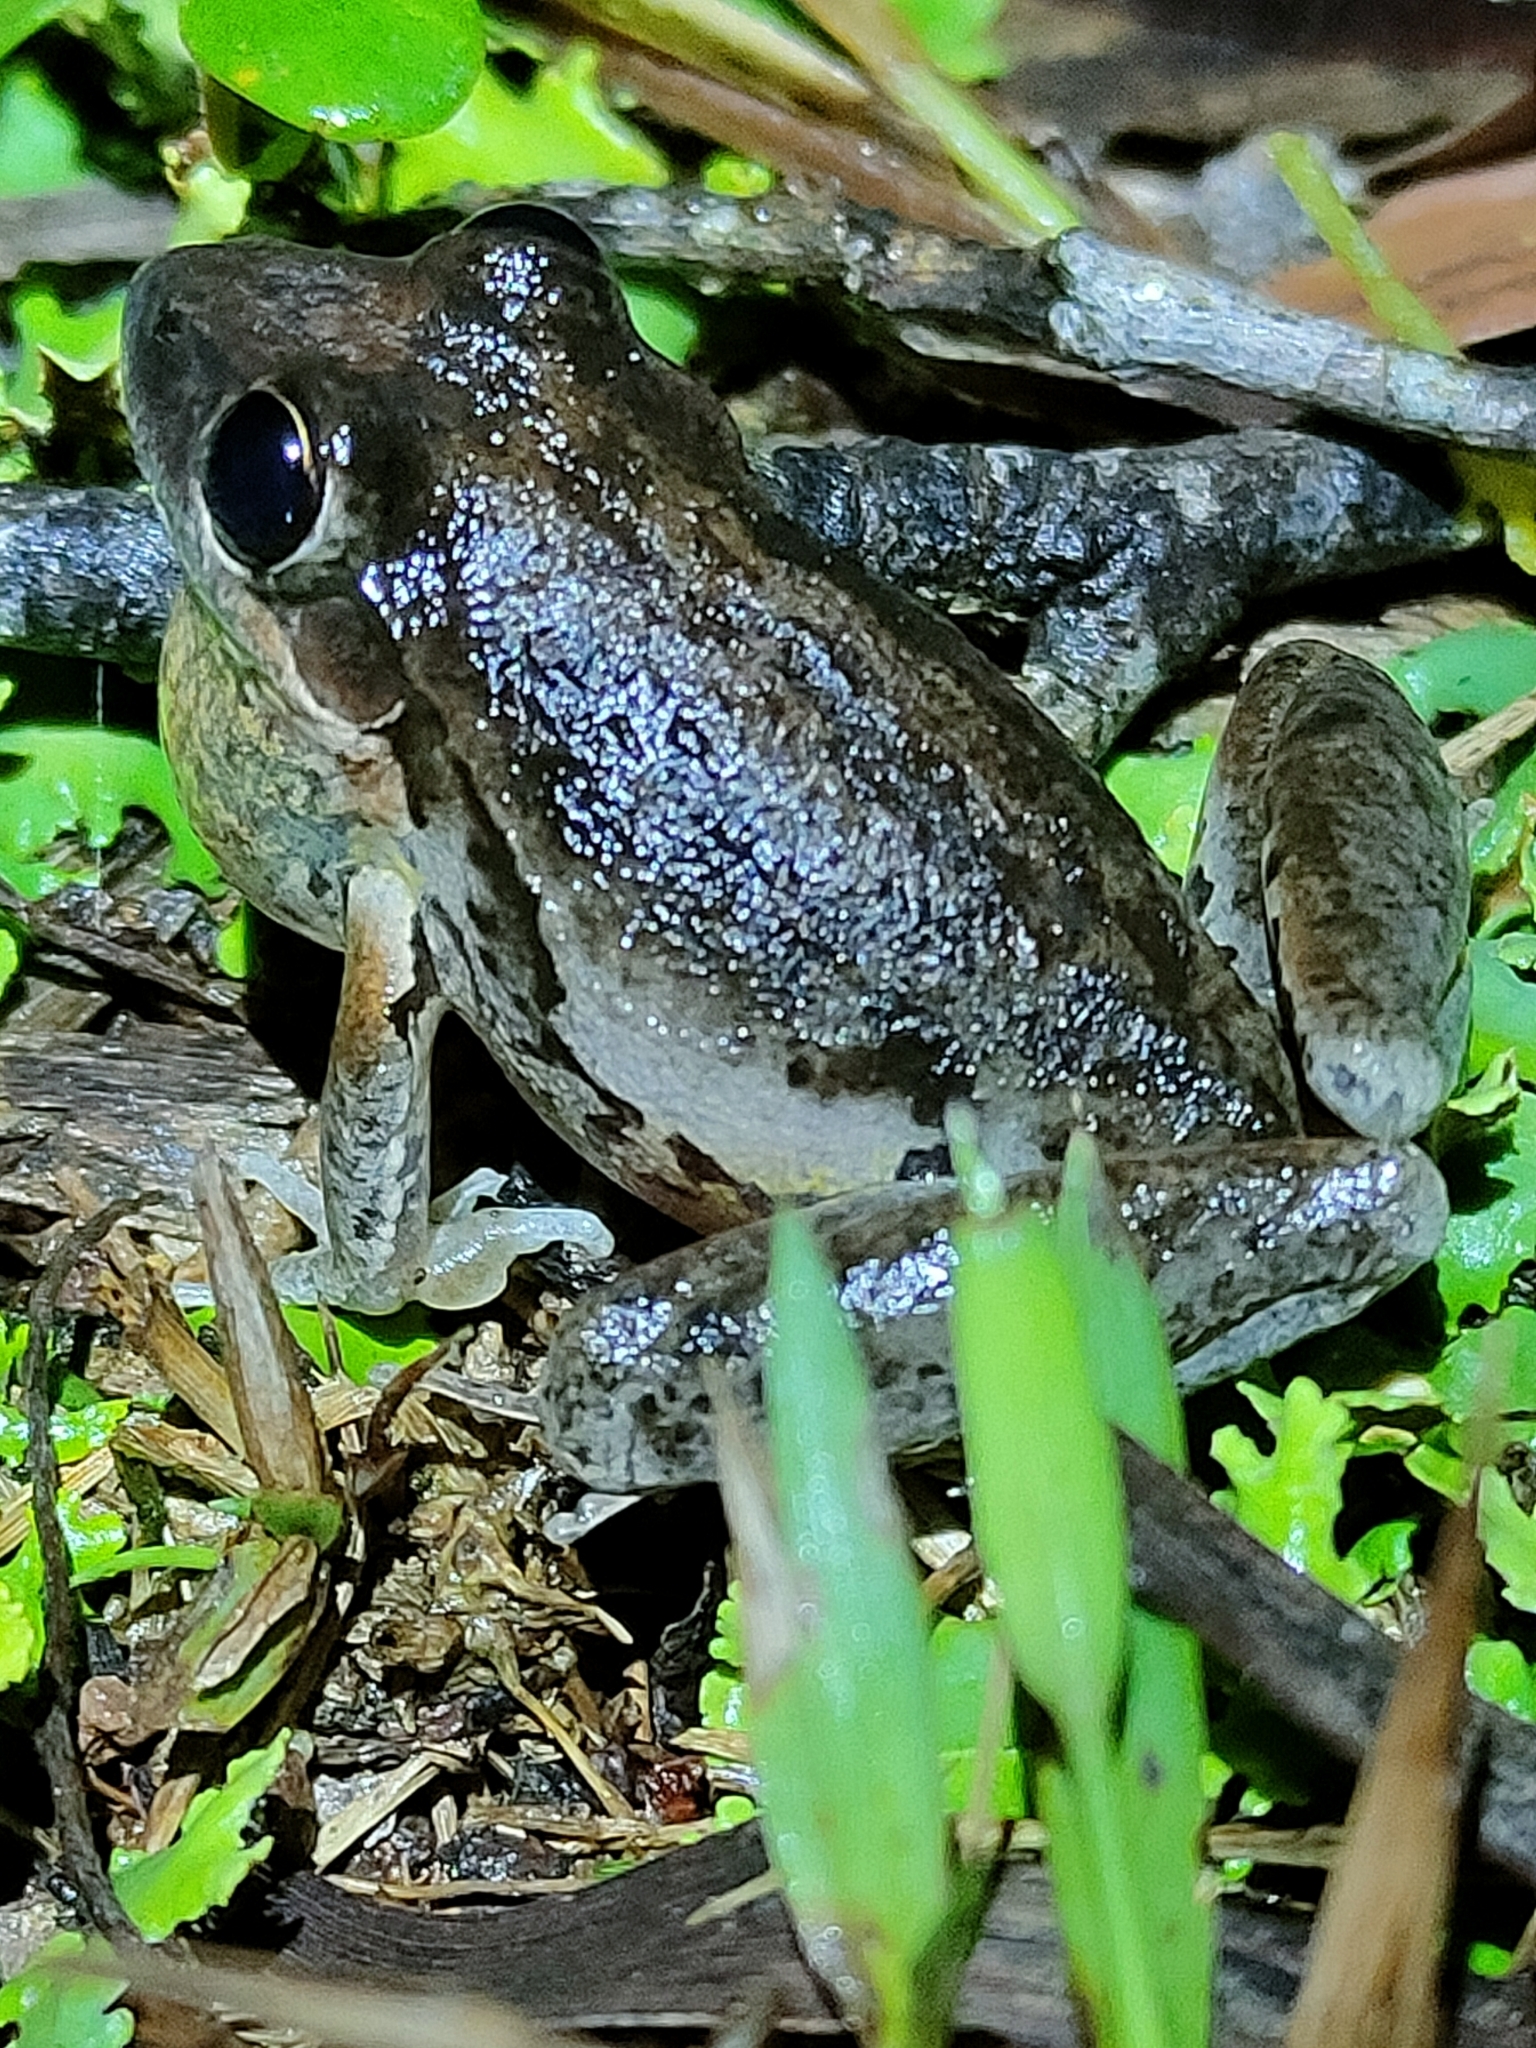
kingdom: Animalia
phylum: Chordata
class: Amphibia
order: Anura
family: Pelodryadidae
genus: Litoria
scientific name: Litoria latopalmata
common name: Broad-palmed rocket frog
